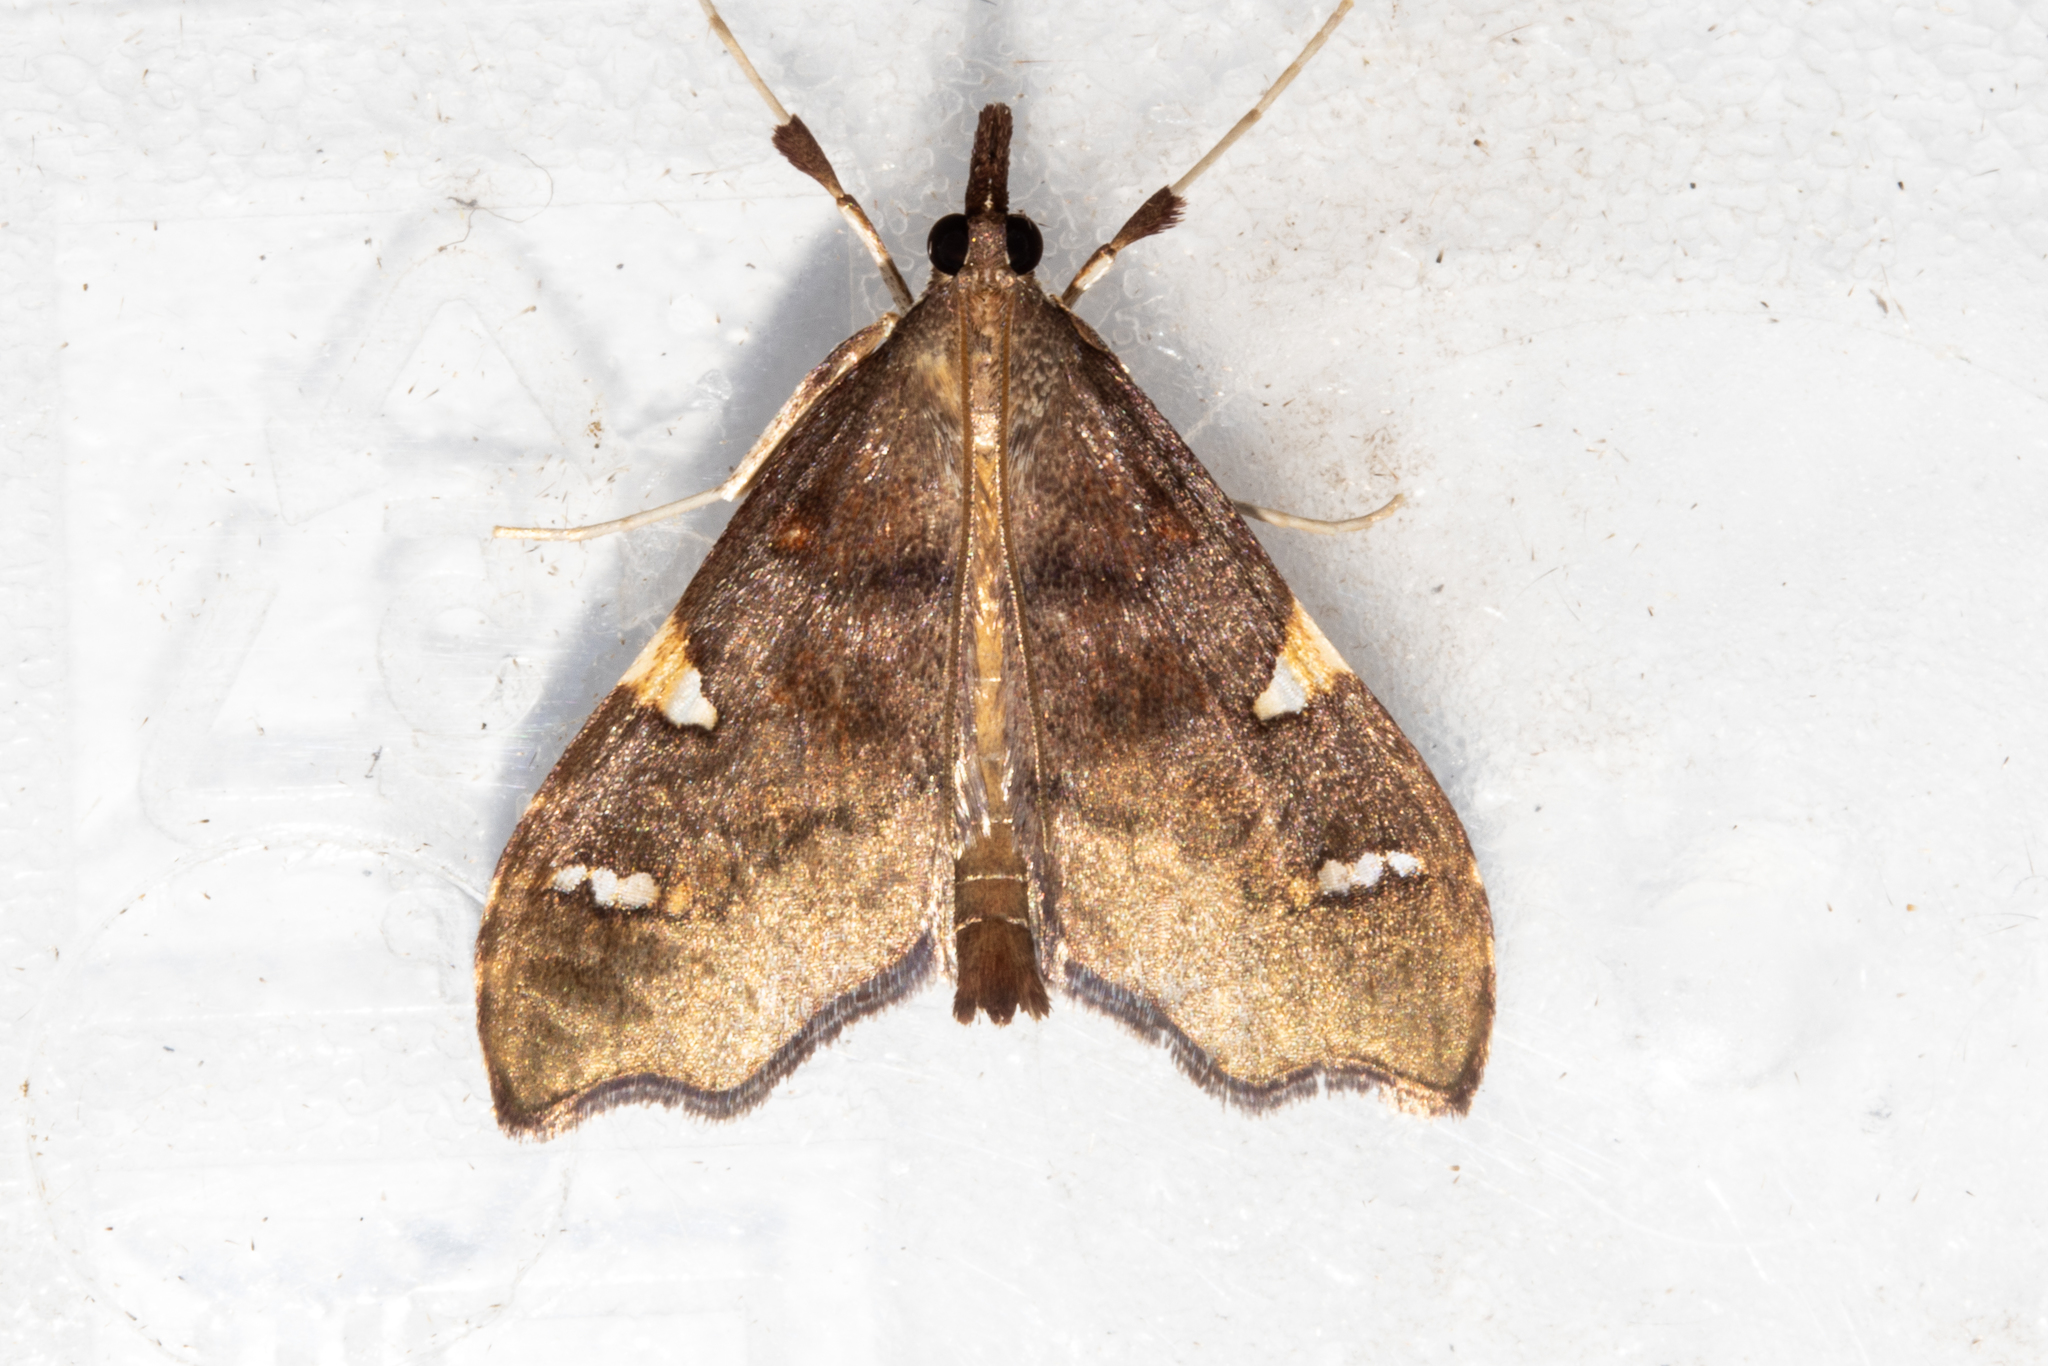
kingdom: Animalia
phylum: Arthropoda
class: Insecta
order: Lepidoptera
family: Crambidae
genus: Deana
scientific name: Deana hybreasalis
